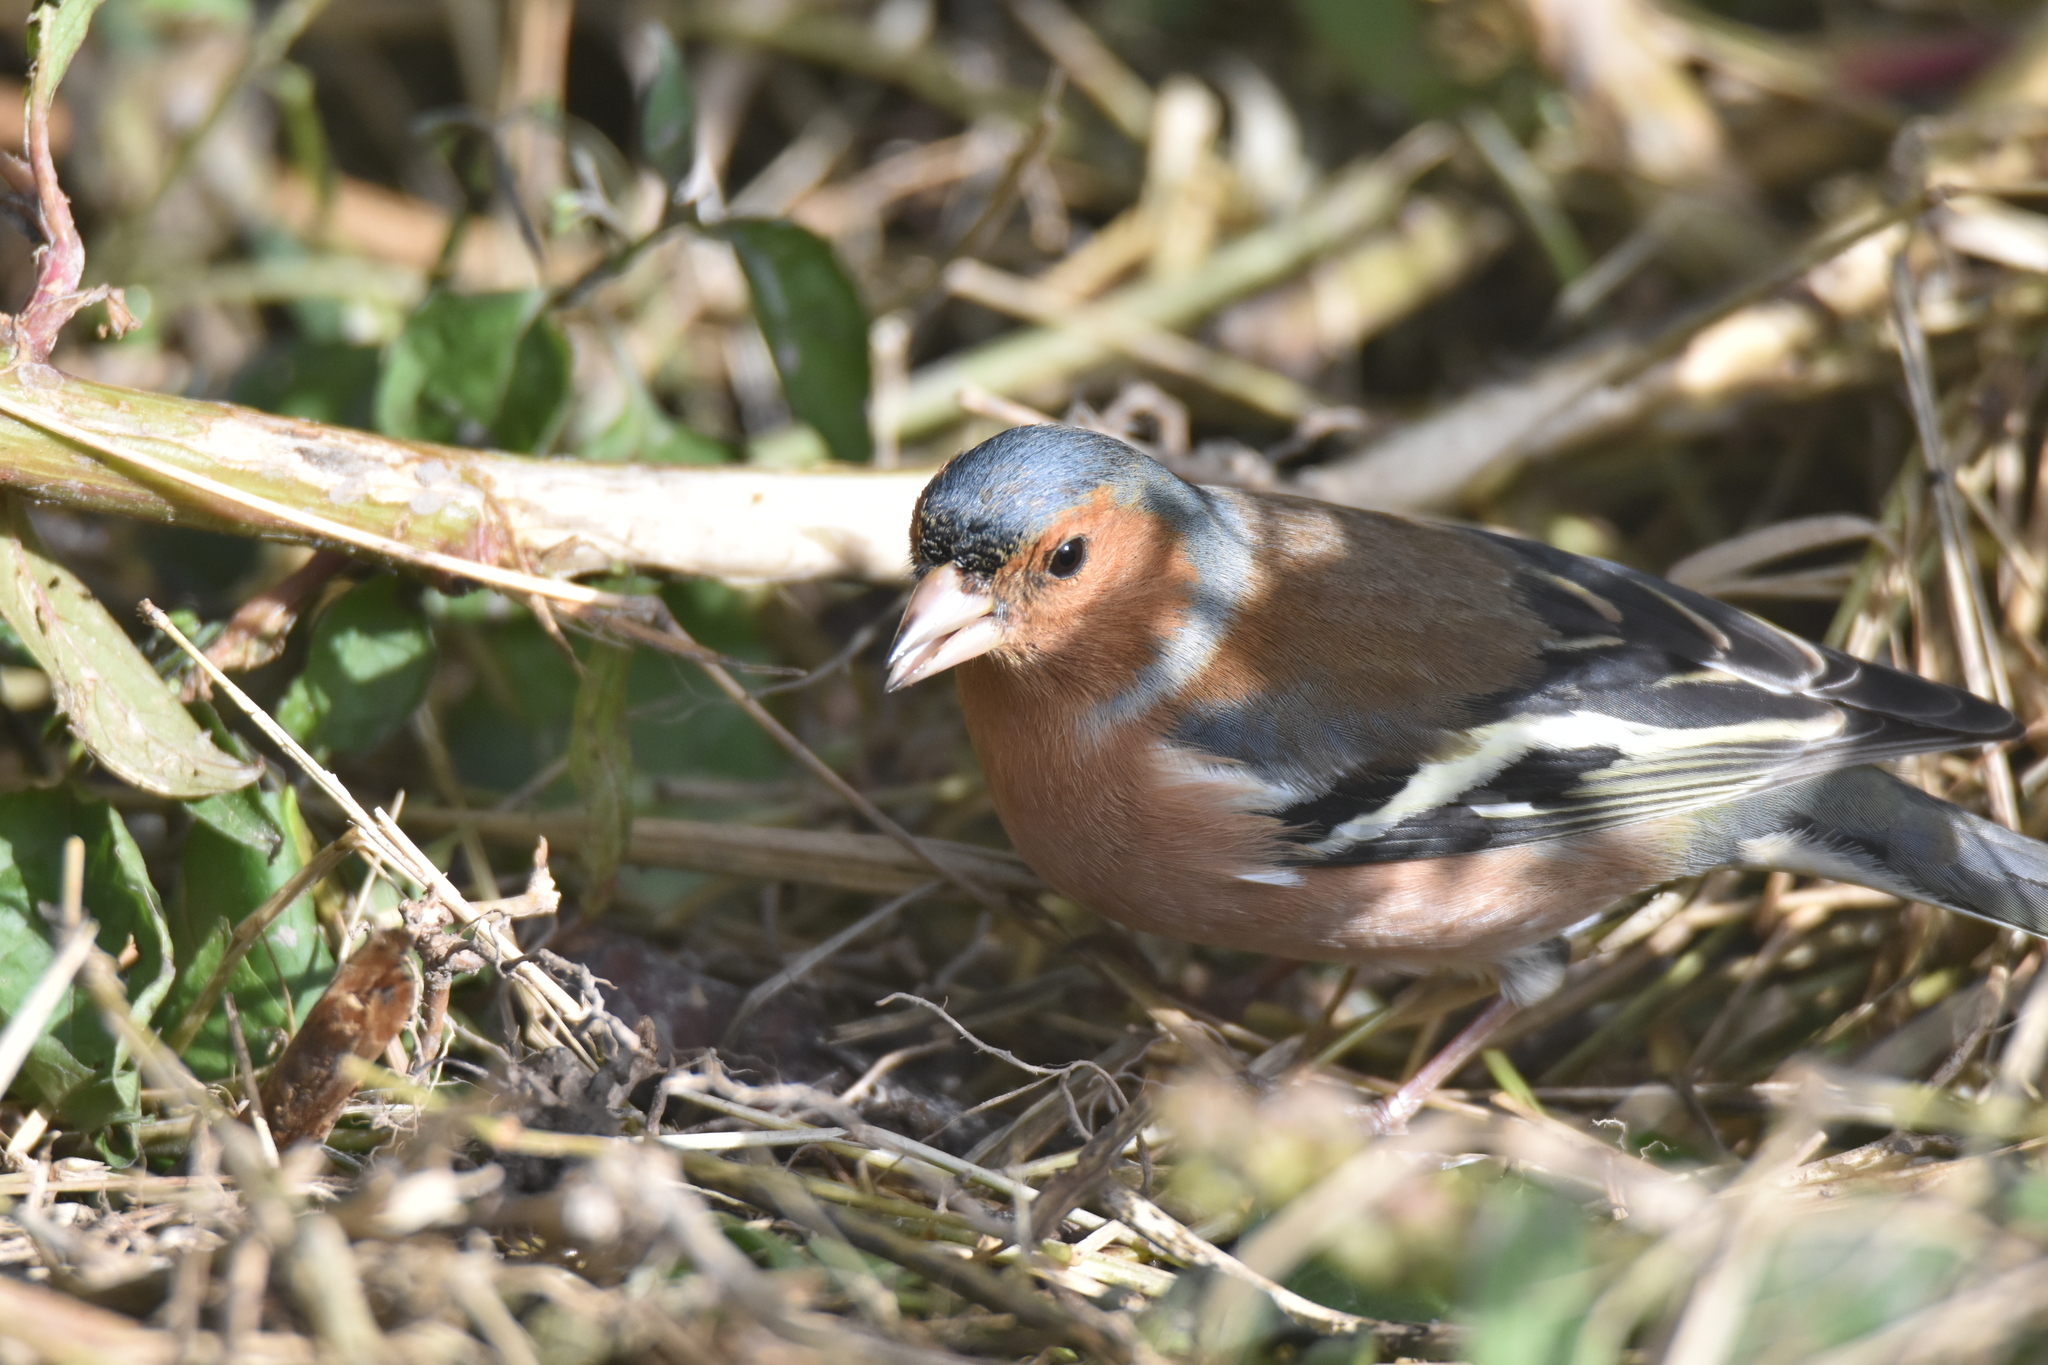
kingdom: Animalia
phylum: Chordata
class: Aves
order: Passeriformes
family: Fringillidae
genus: Fringilla
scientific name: Fringilla coelebs
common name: Common chaffinch
